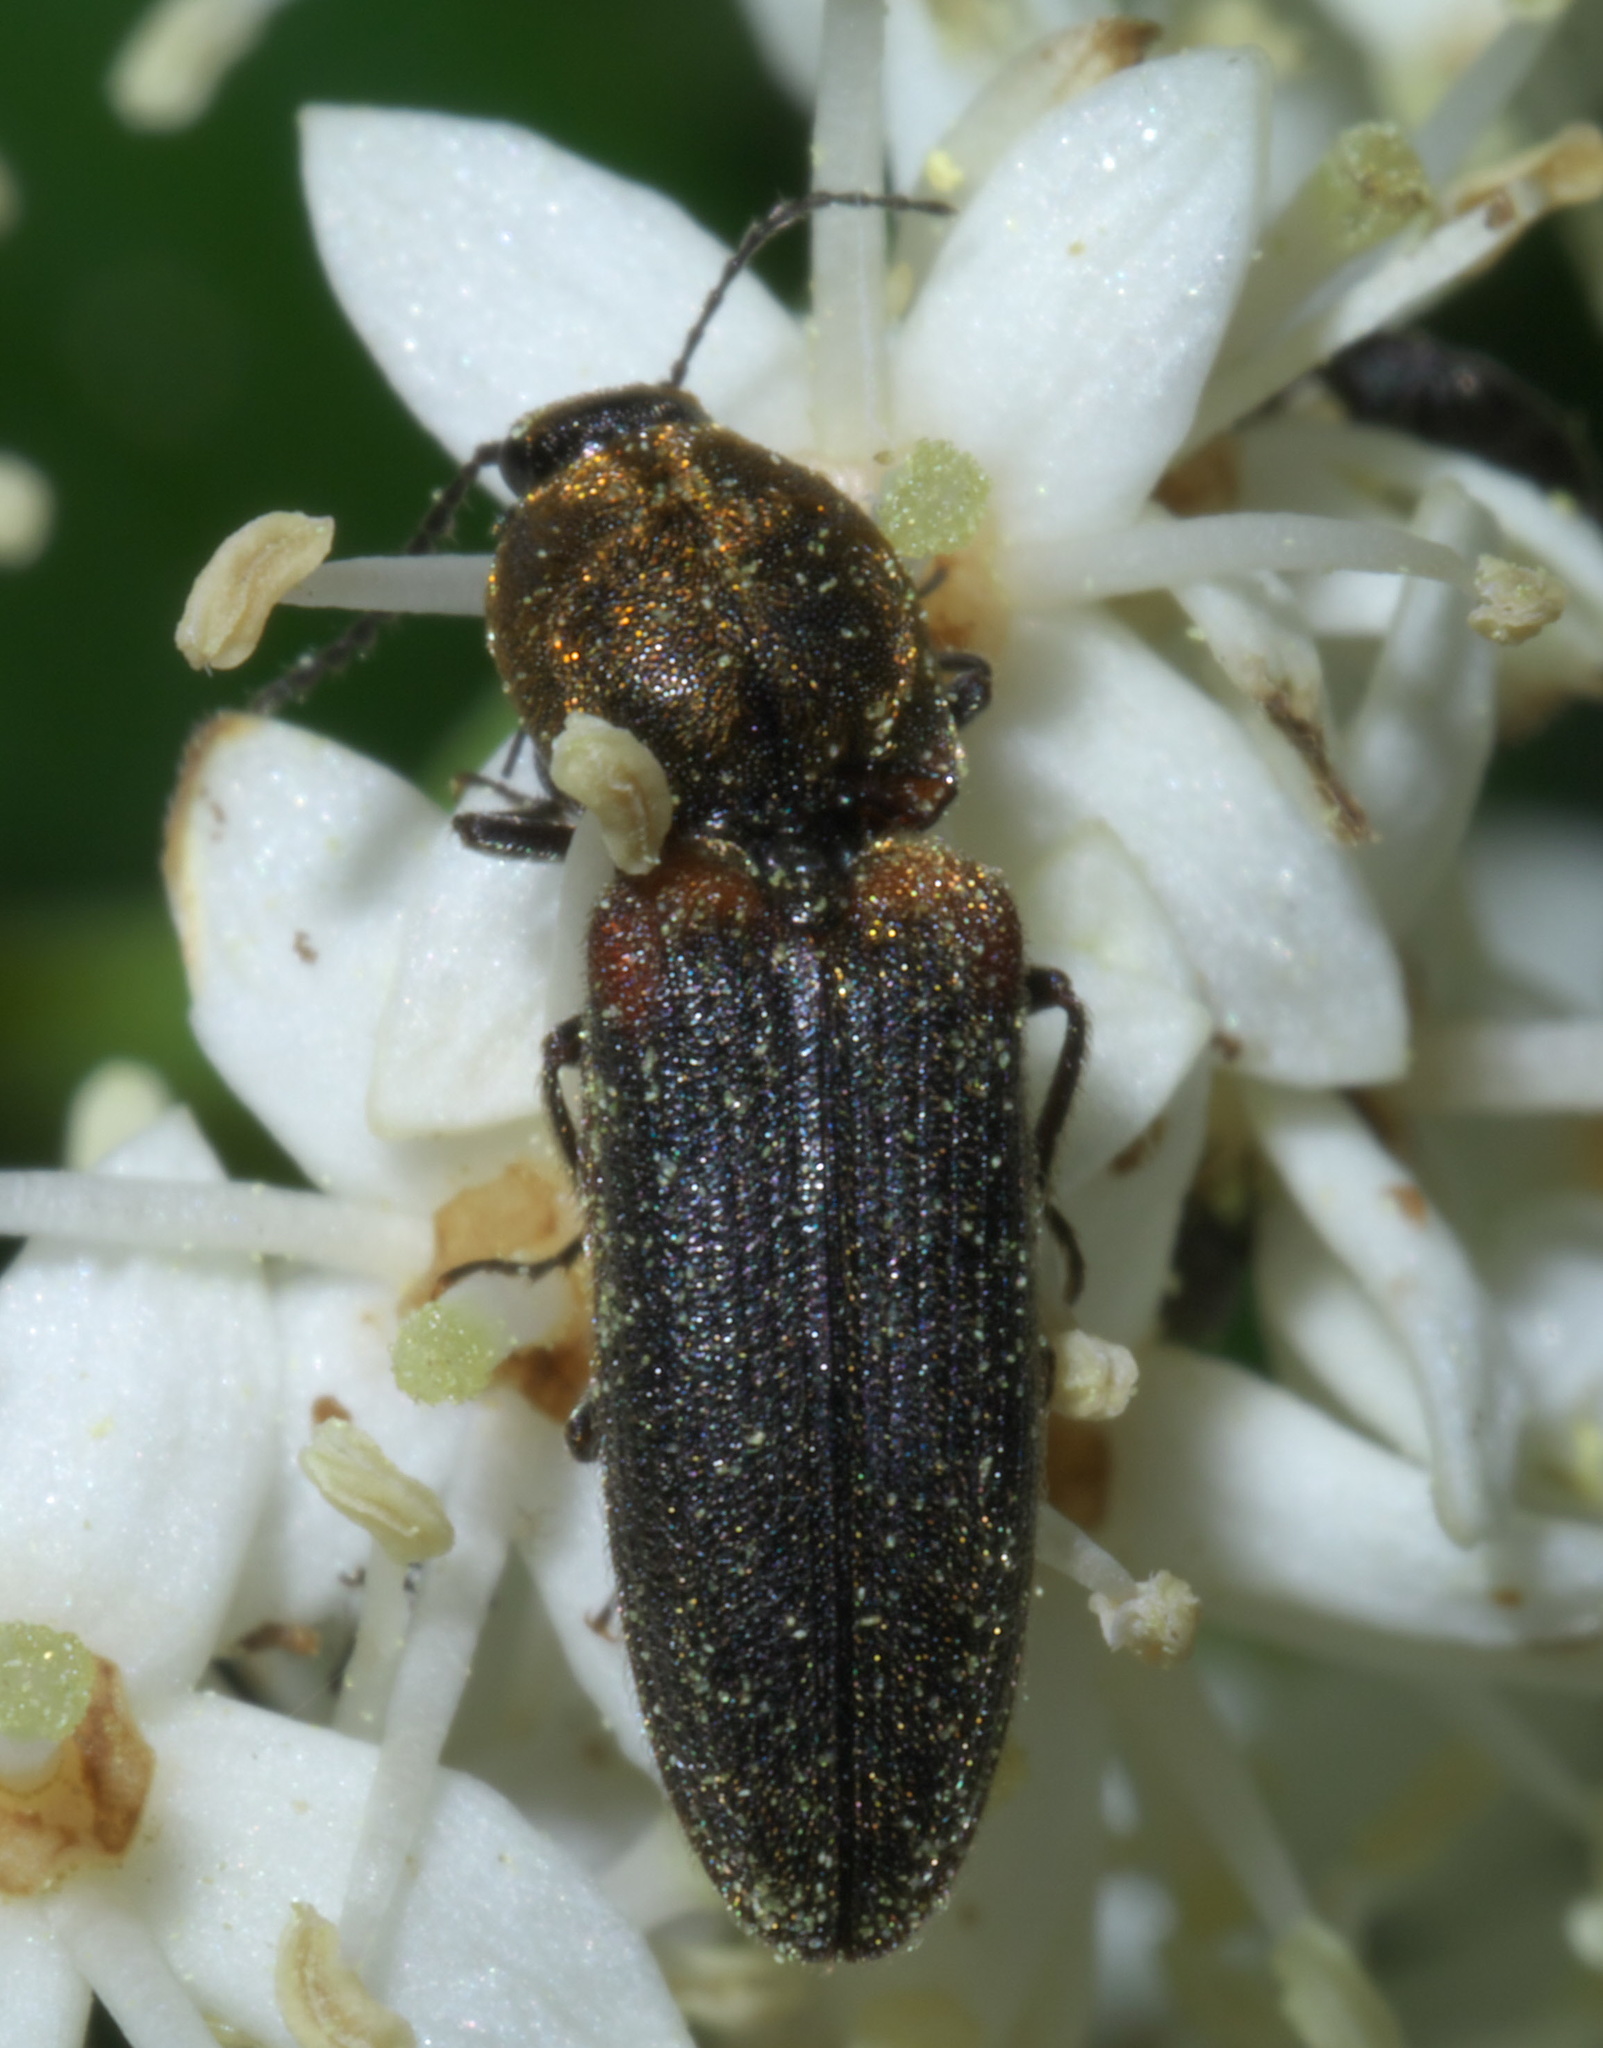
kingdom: Animalia
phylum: Arthropoda
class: Insecta
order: Coleoptera
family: Elateridae
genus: Limonius
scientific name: Limonius auripilis
